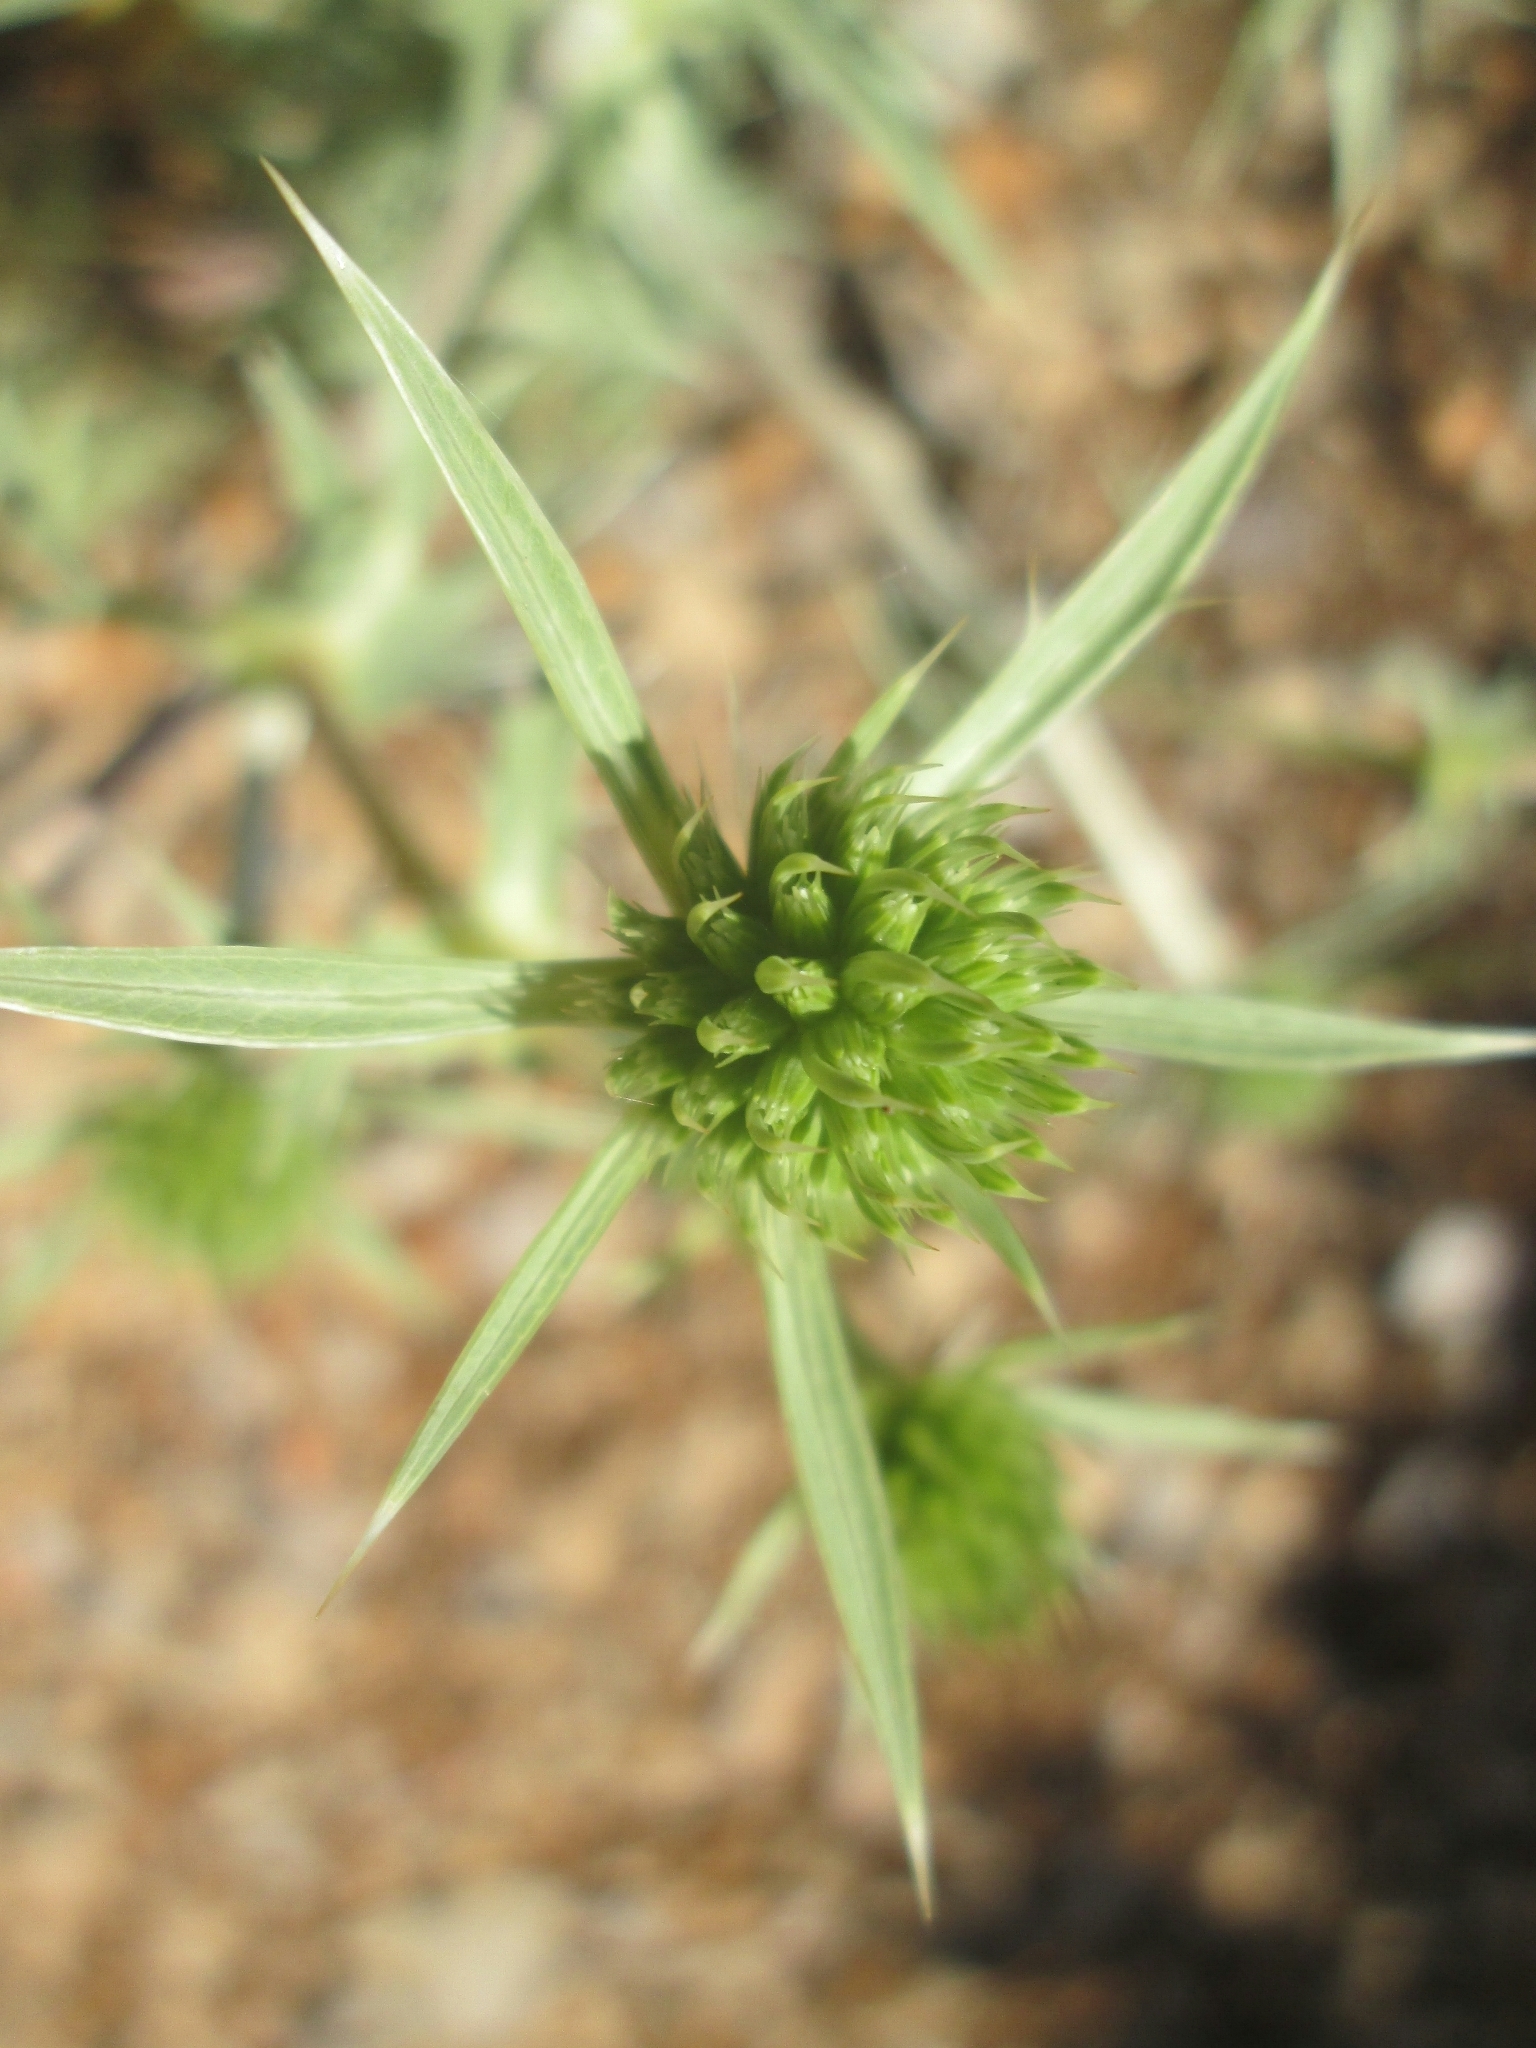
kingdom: Plantae
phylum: Tracheophyta
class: Magnoliopsida
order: Apiales
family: Apiaceae
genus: Eryngium
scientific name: Eryngium campestre
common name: Field eryngo
